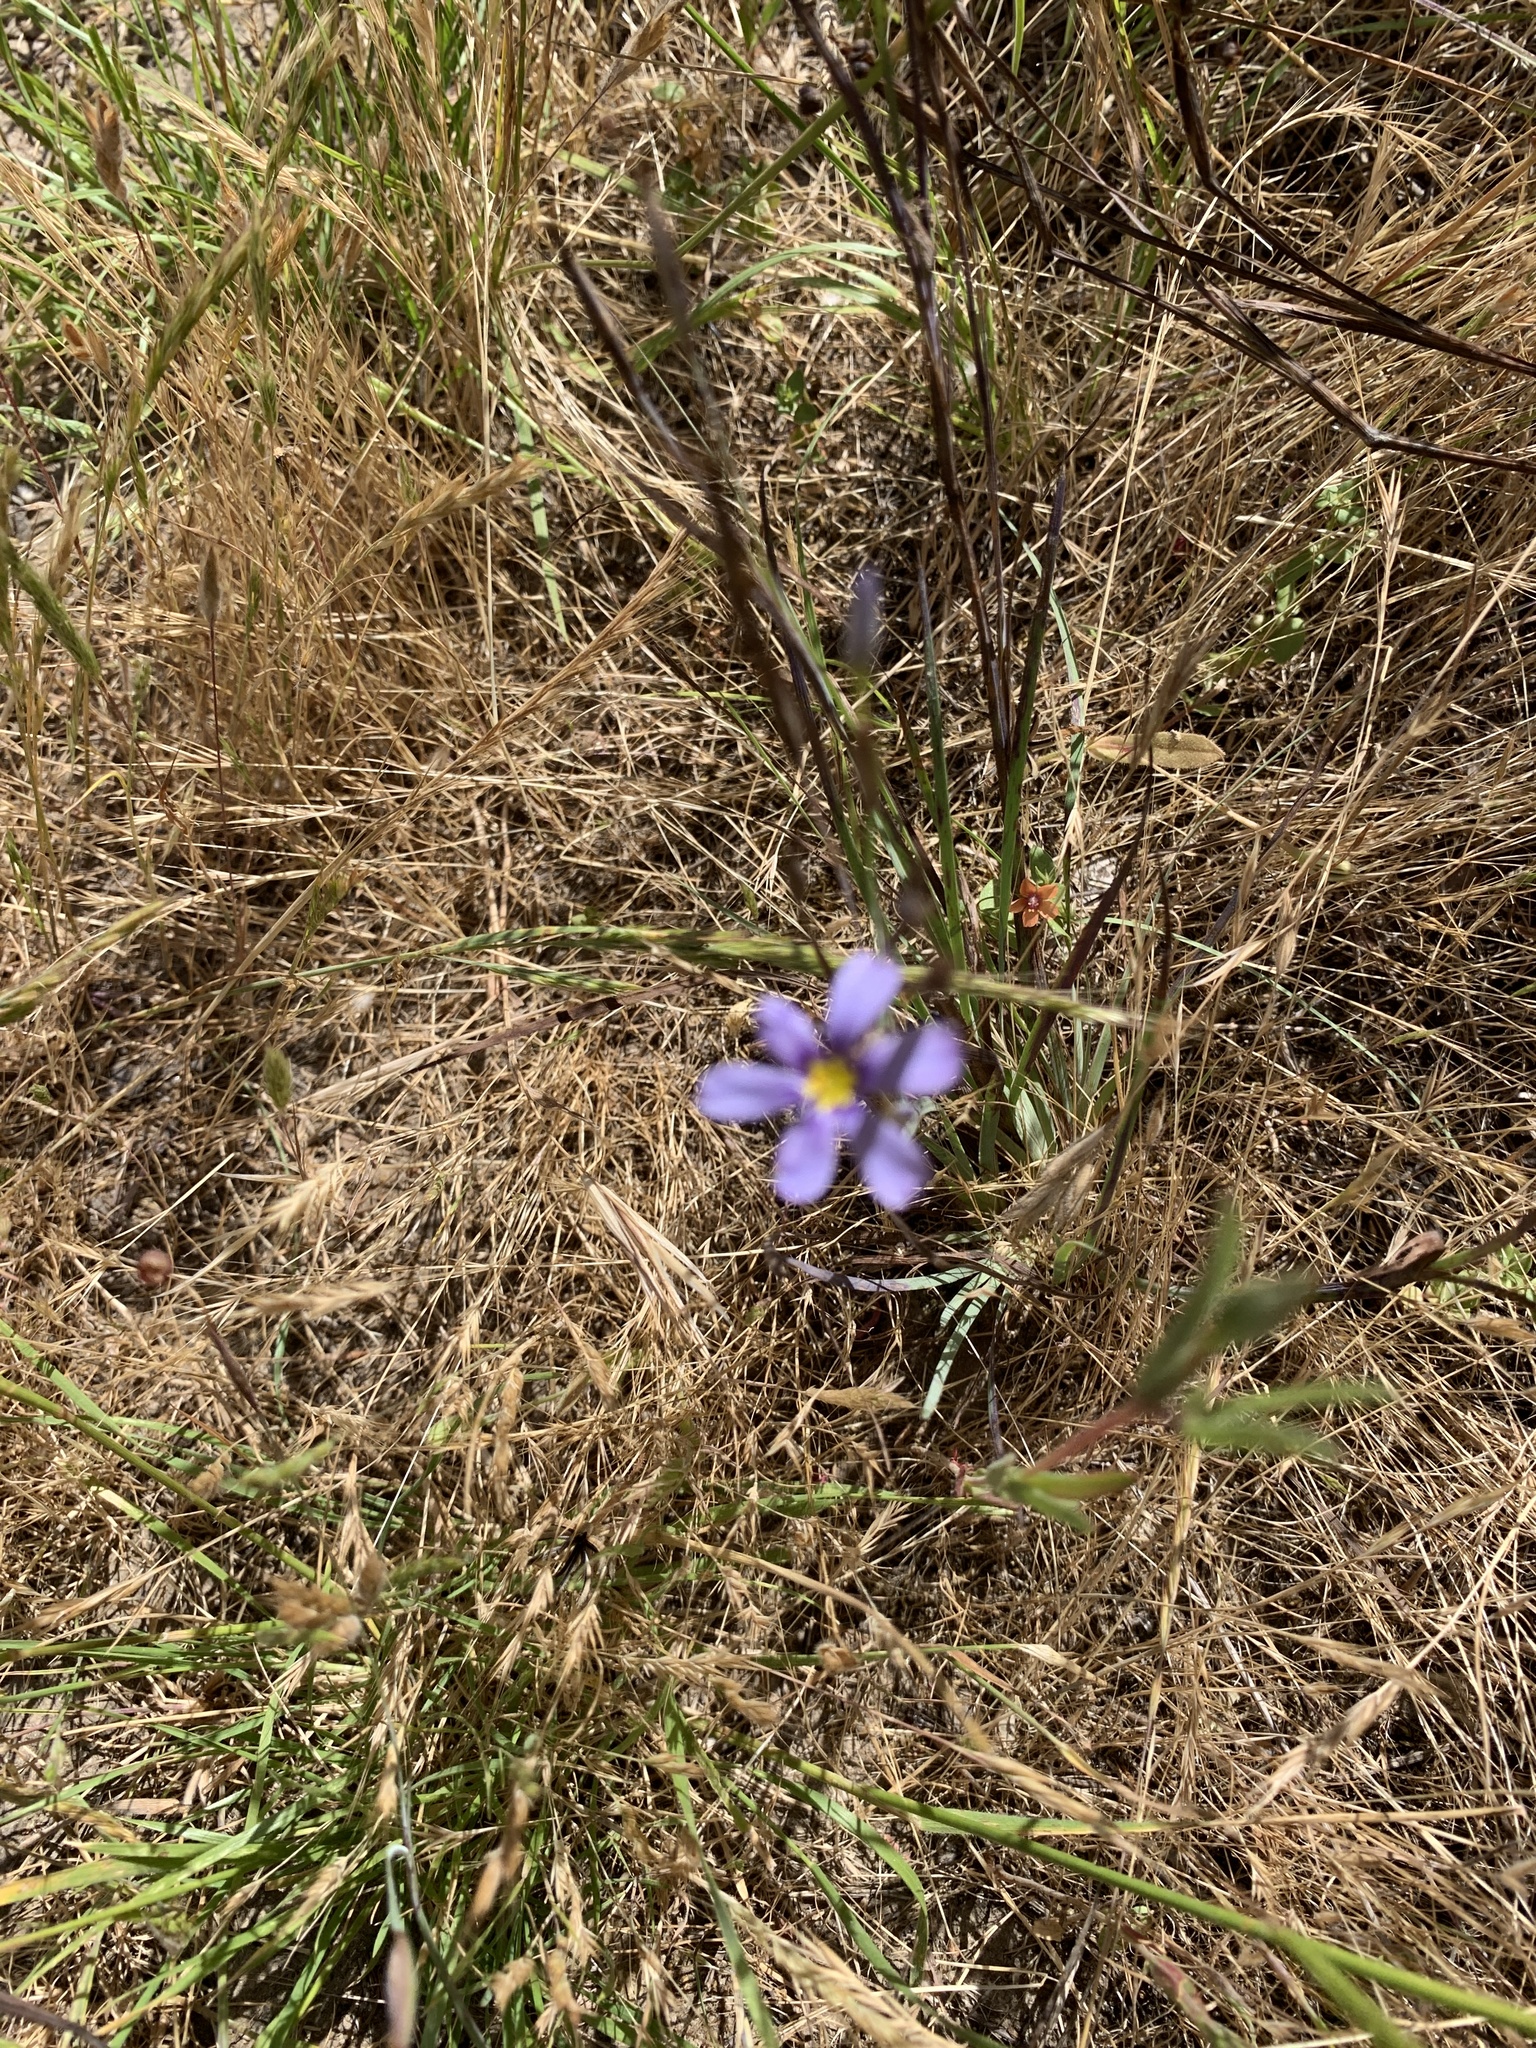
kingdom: Plantae
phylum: Tracheophyta
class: Liliopsida
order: Asparagales
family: Iridaceae
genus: Sisyrinchium
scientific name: Sisyrinchium bellum
